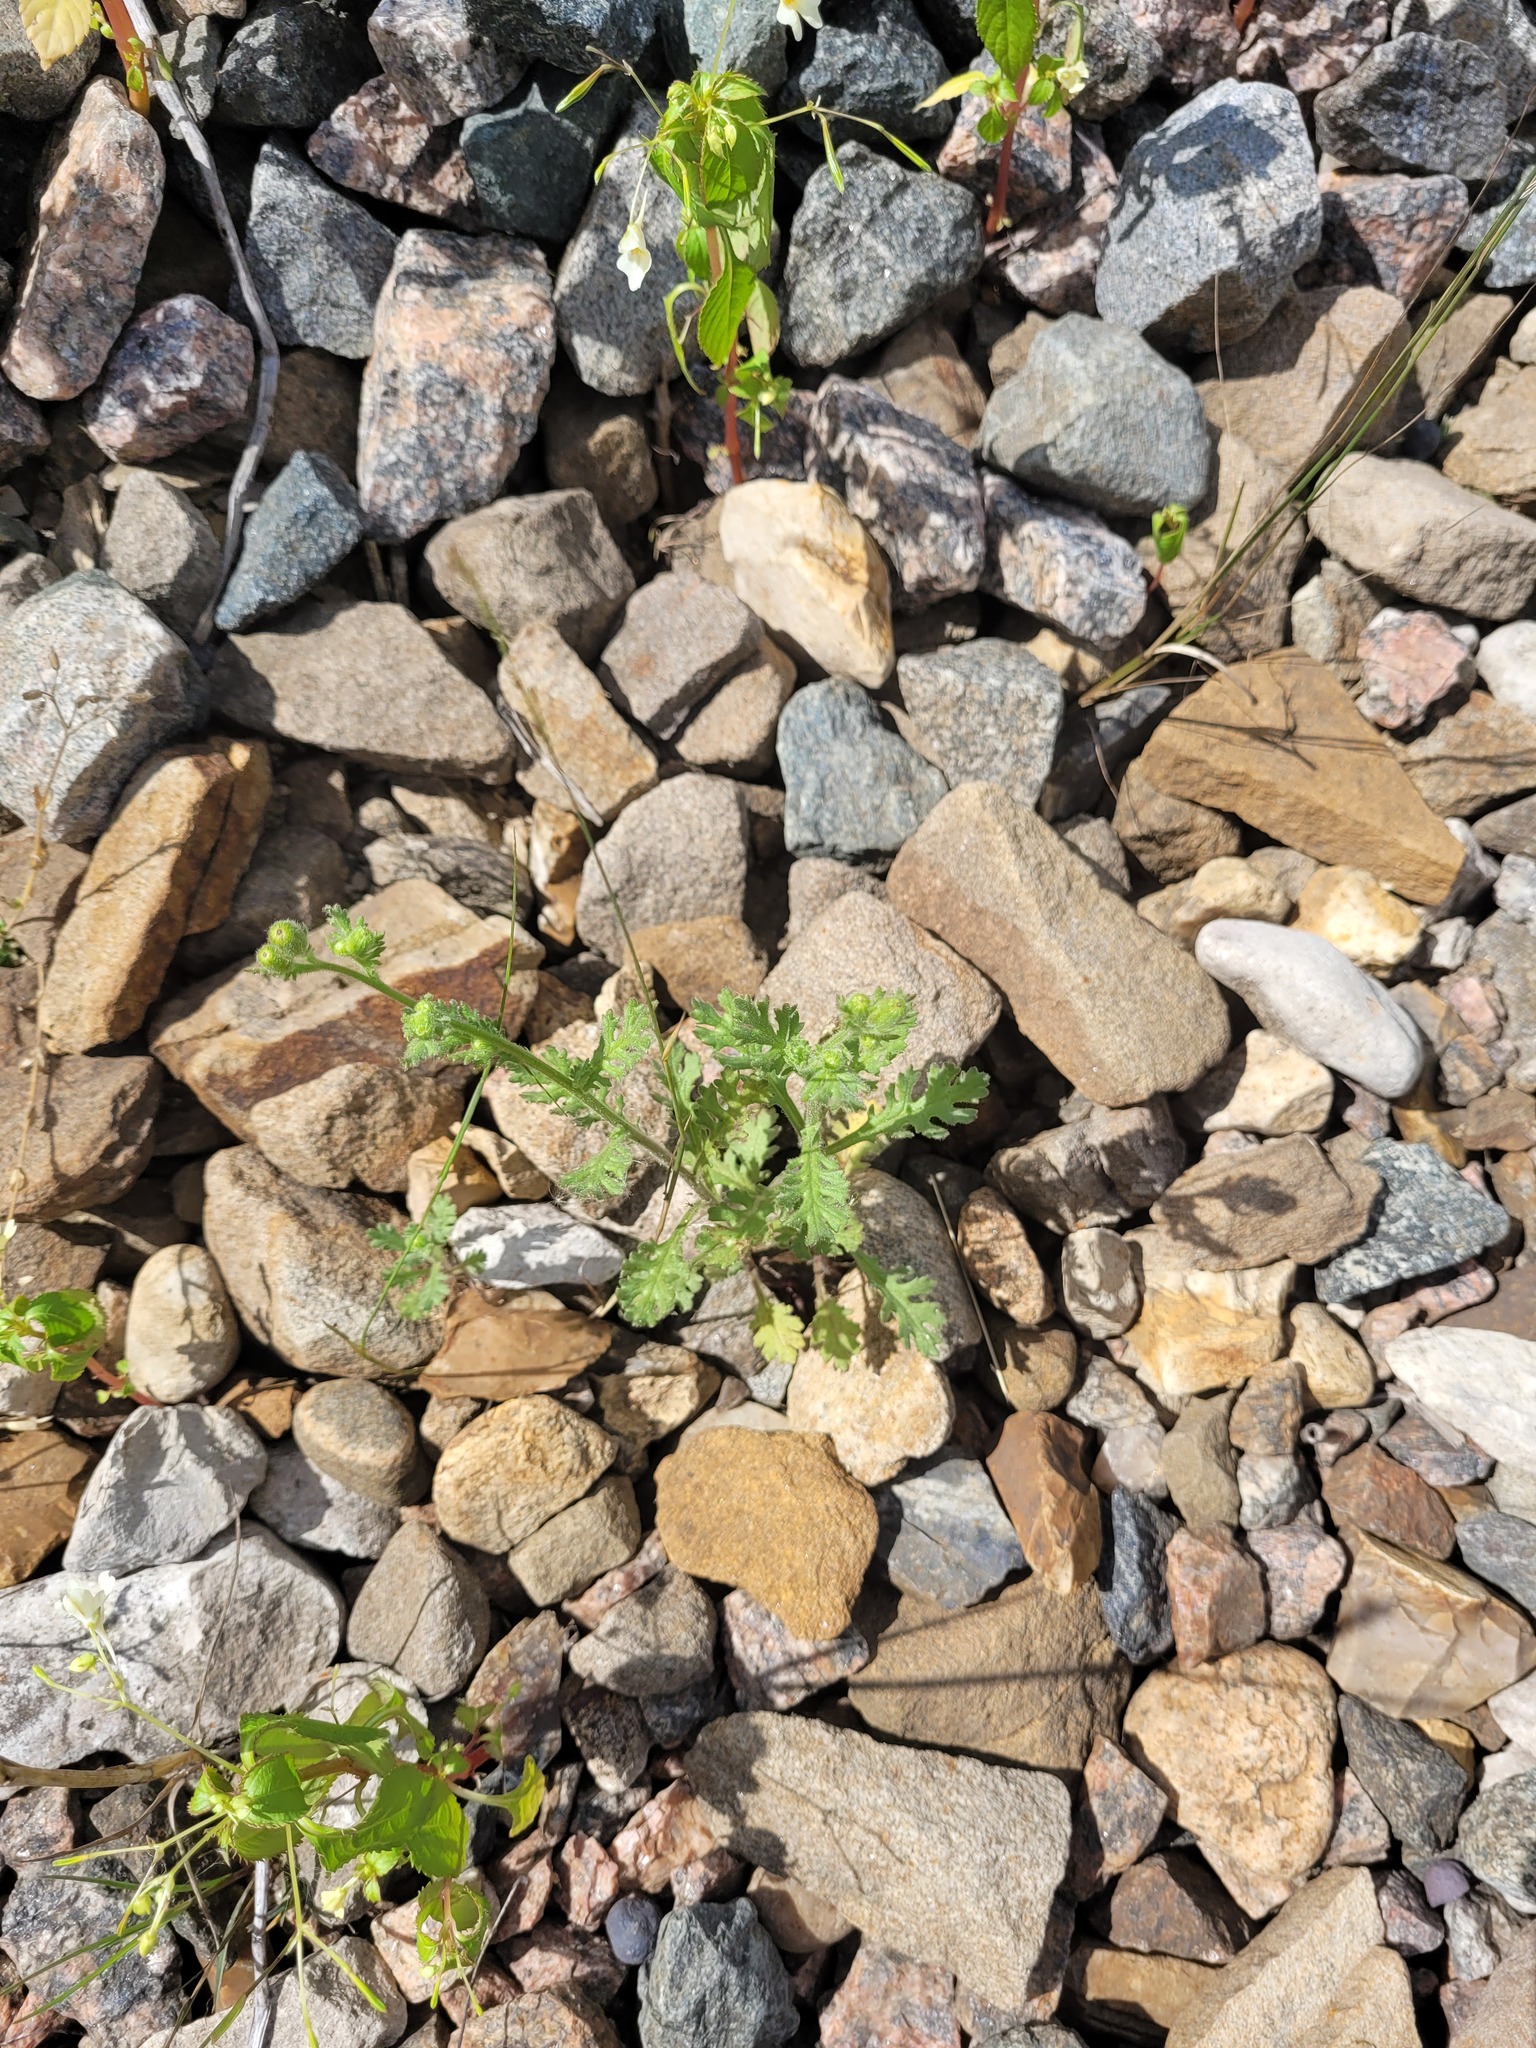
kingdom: Plantae
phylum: Tracheophyta
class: Magnoliopsida
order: Asterales
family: Asteraceae
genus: Senecio
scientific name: Senecio viscosus
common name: Sticky groundsel
